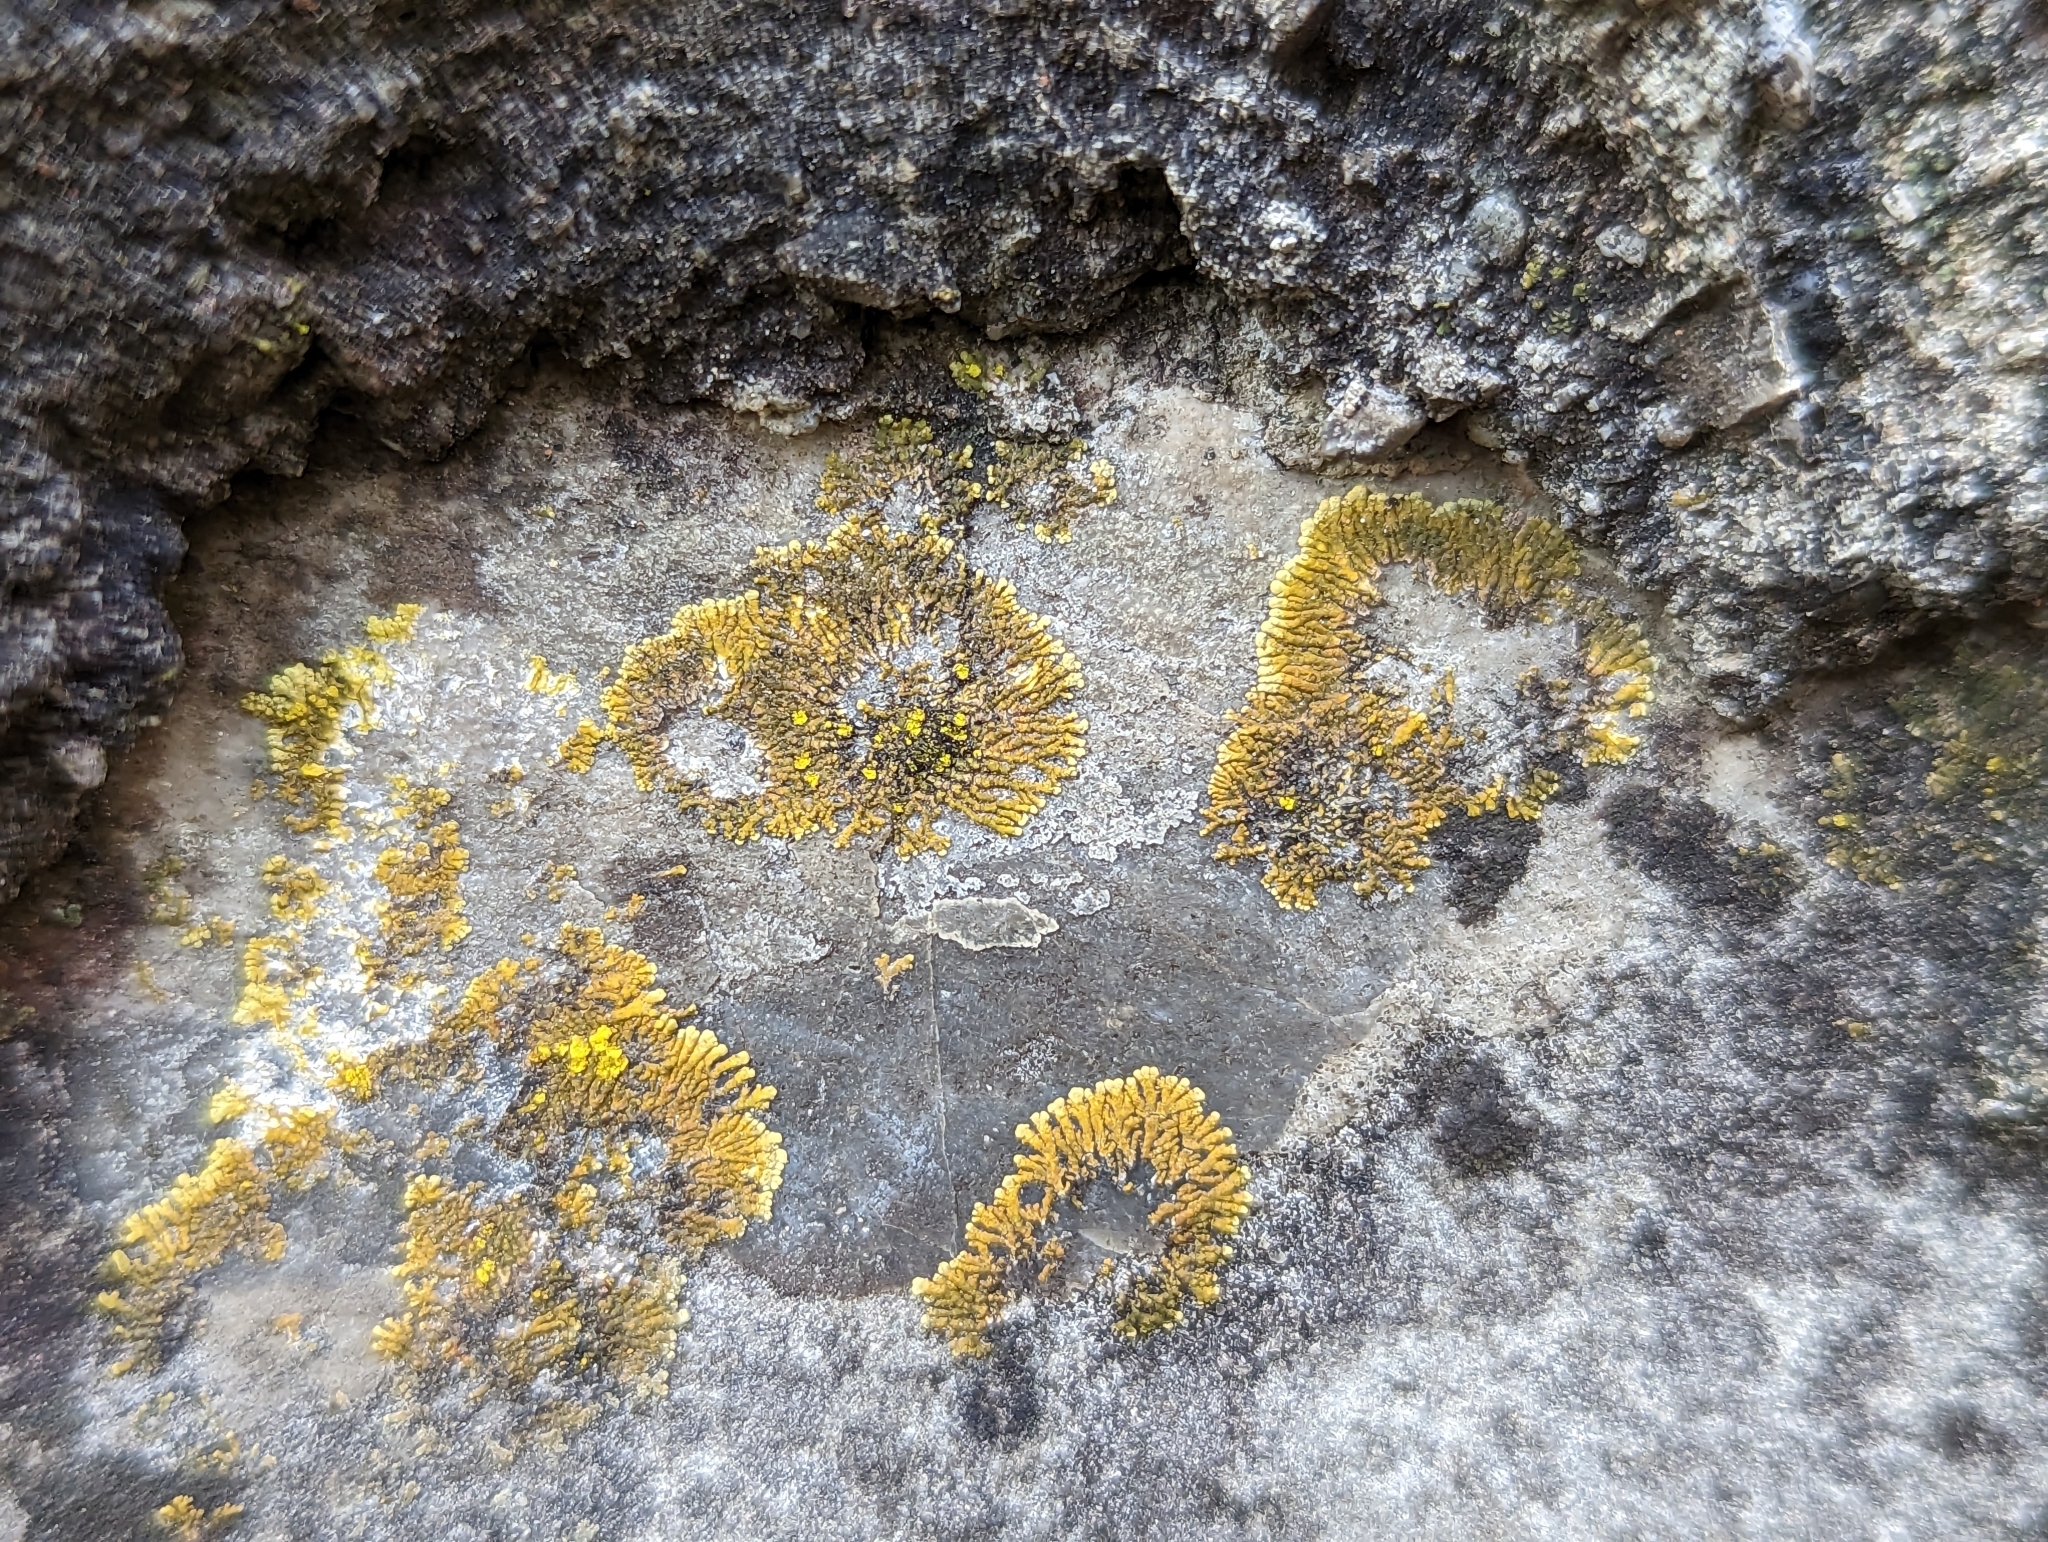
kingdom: Fungi
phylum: Ascomycota
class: Lecanoromycetes
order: Teloschistales
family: Teloschistaceae
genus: Leproplaca
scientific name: Leproplaca cirrochroa
